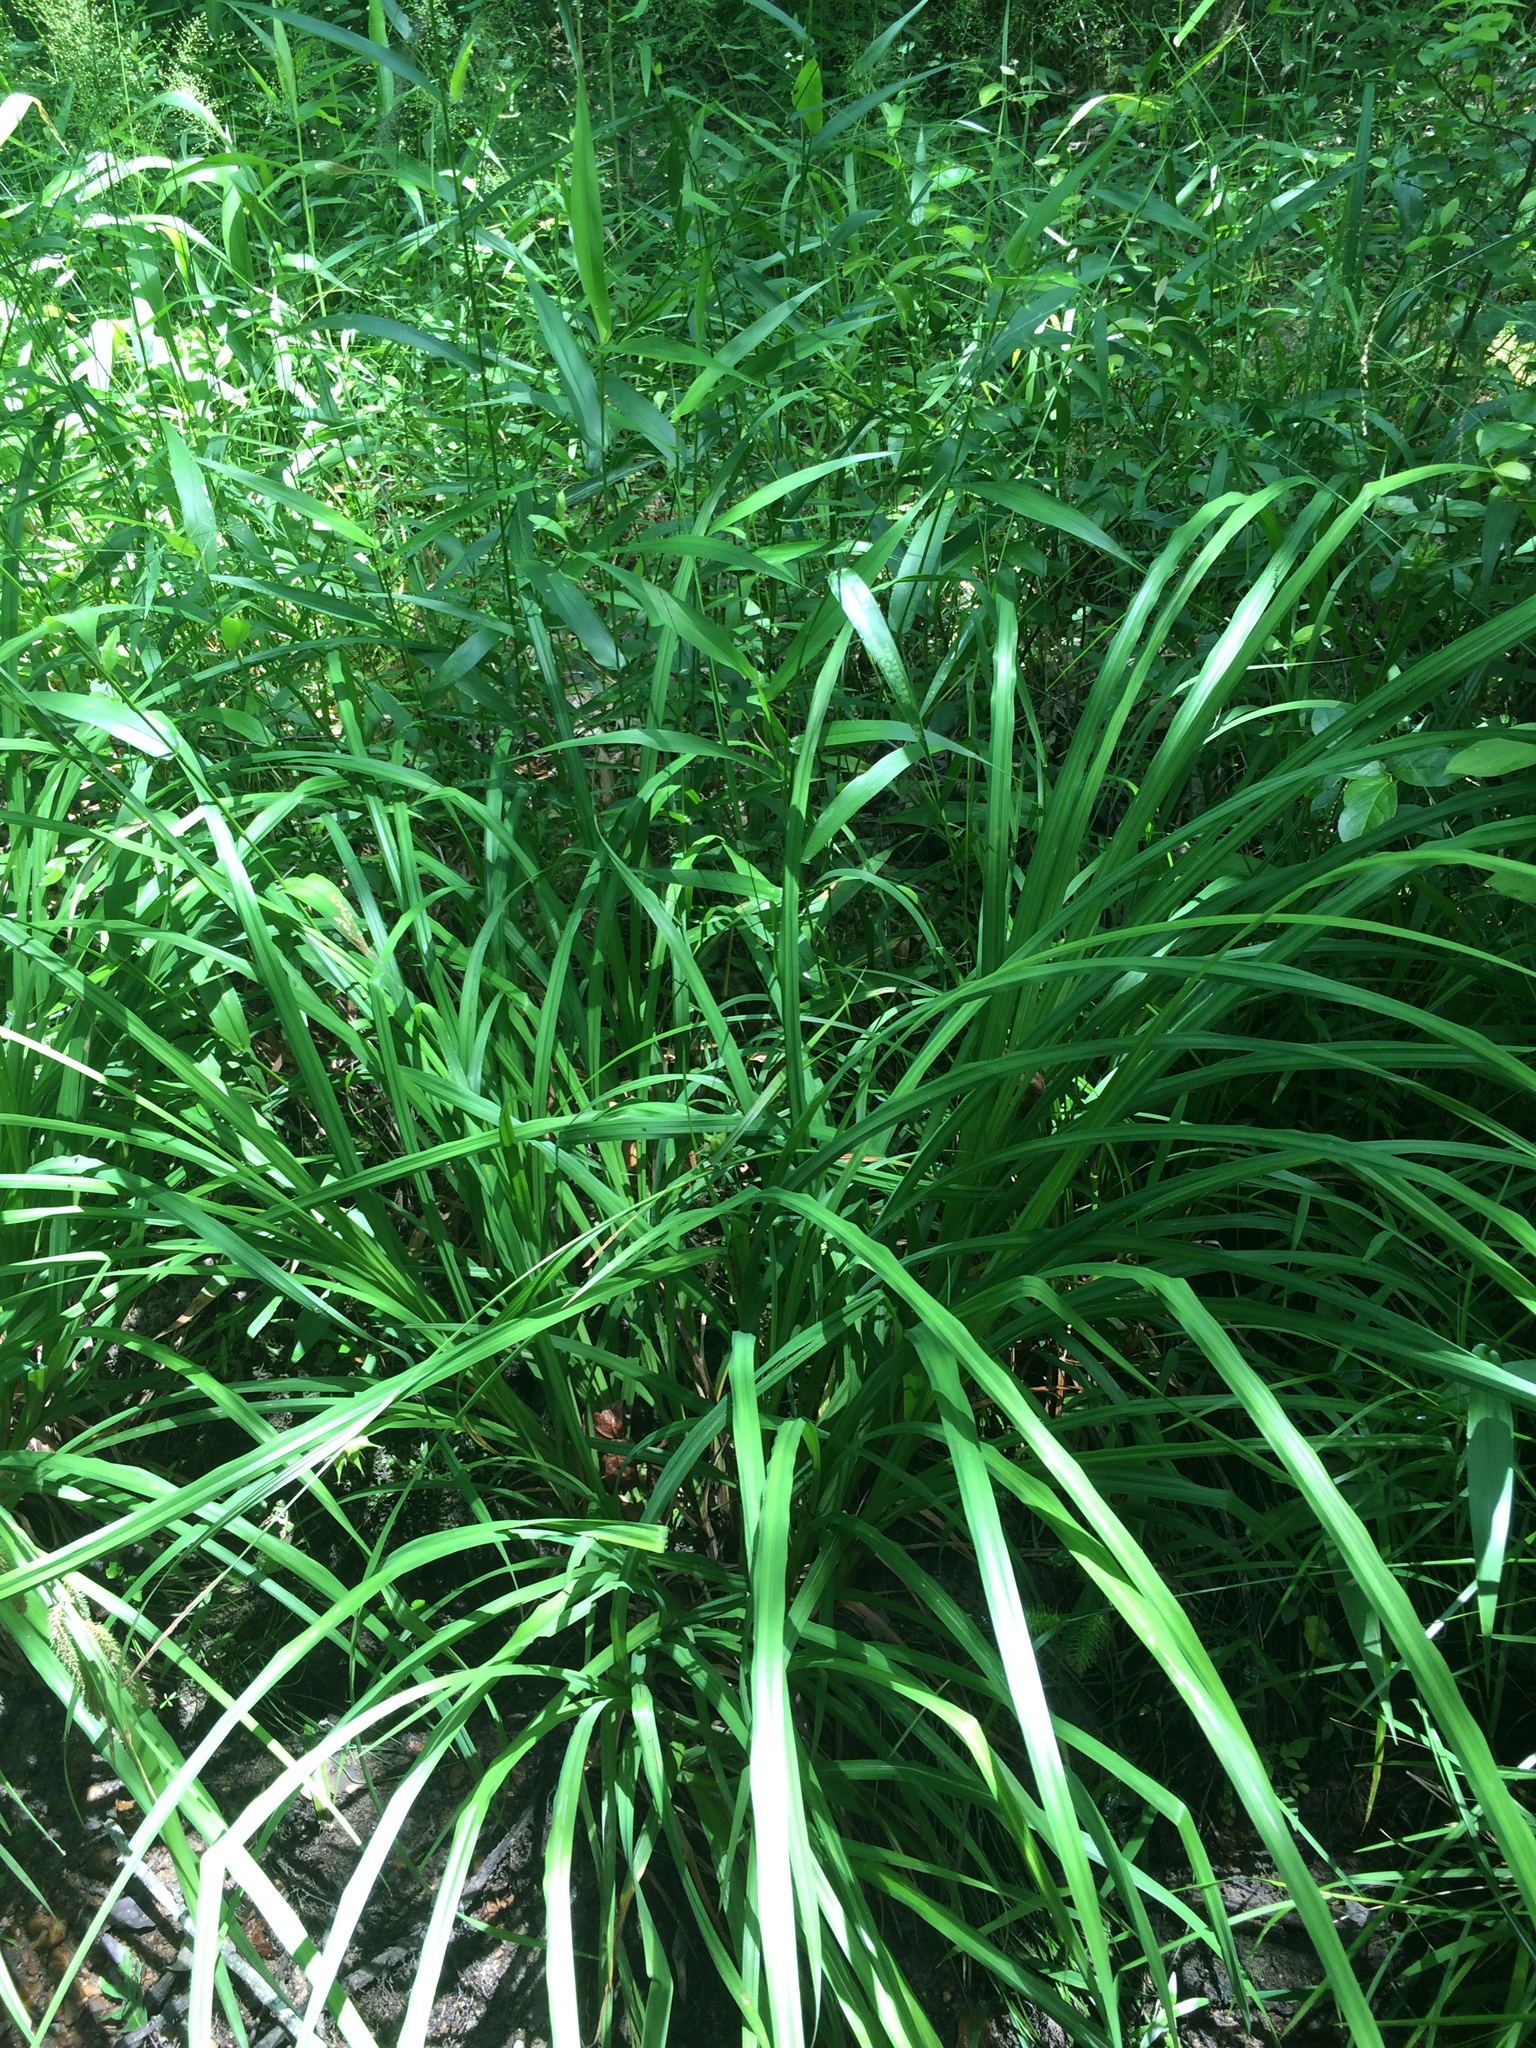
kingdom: Plantae
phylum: Tracheophyta
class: Liliopsida
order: Poales
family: Cyperaceae
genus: Carex
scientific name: Carex crinita
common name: Fringed sedge
